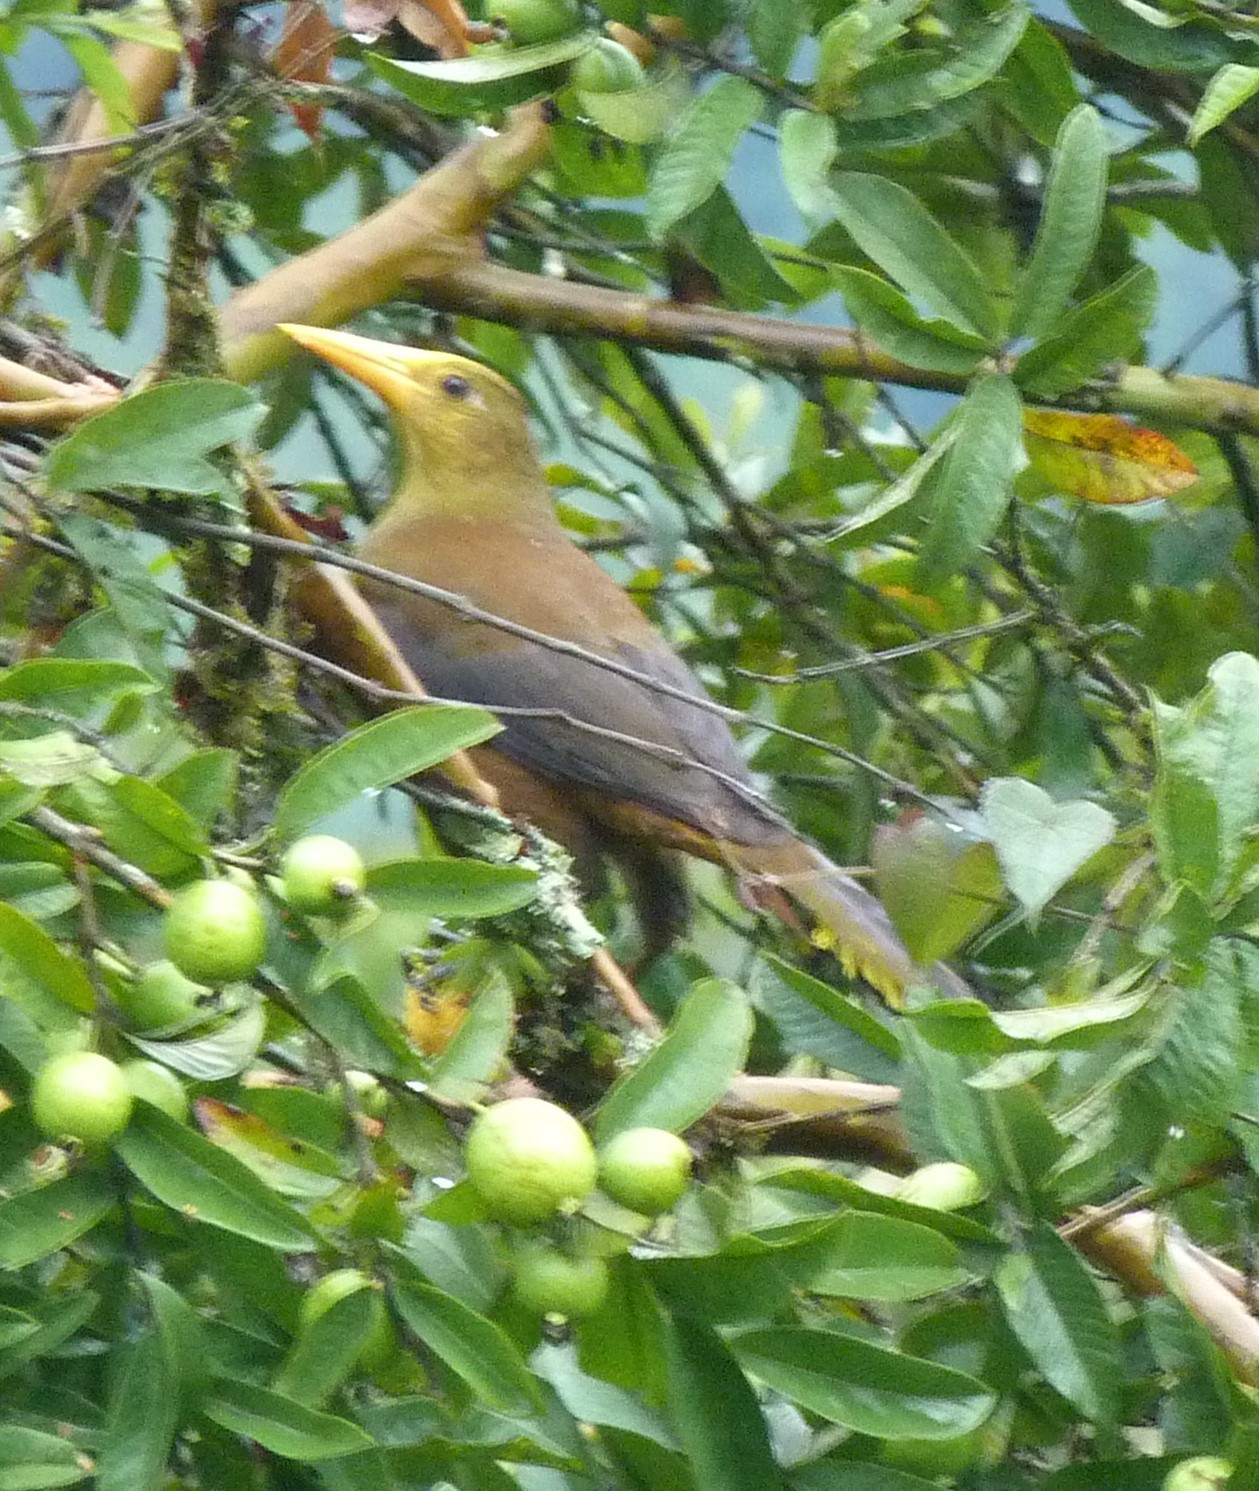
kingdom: Animalia
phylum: Chordata
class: Aves
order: Passeriformes
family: Icteridae
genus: Psarocolius
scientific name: Psarocolius angustifrons
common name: Russet-backed oropendola
